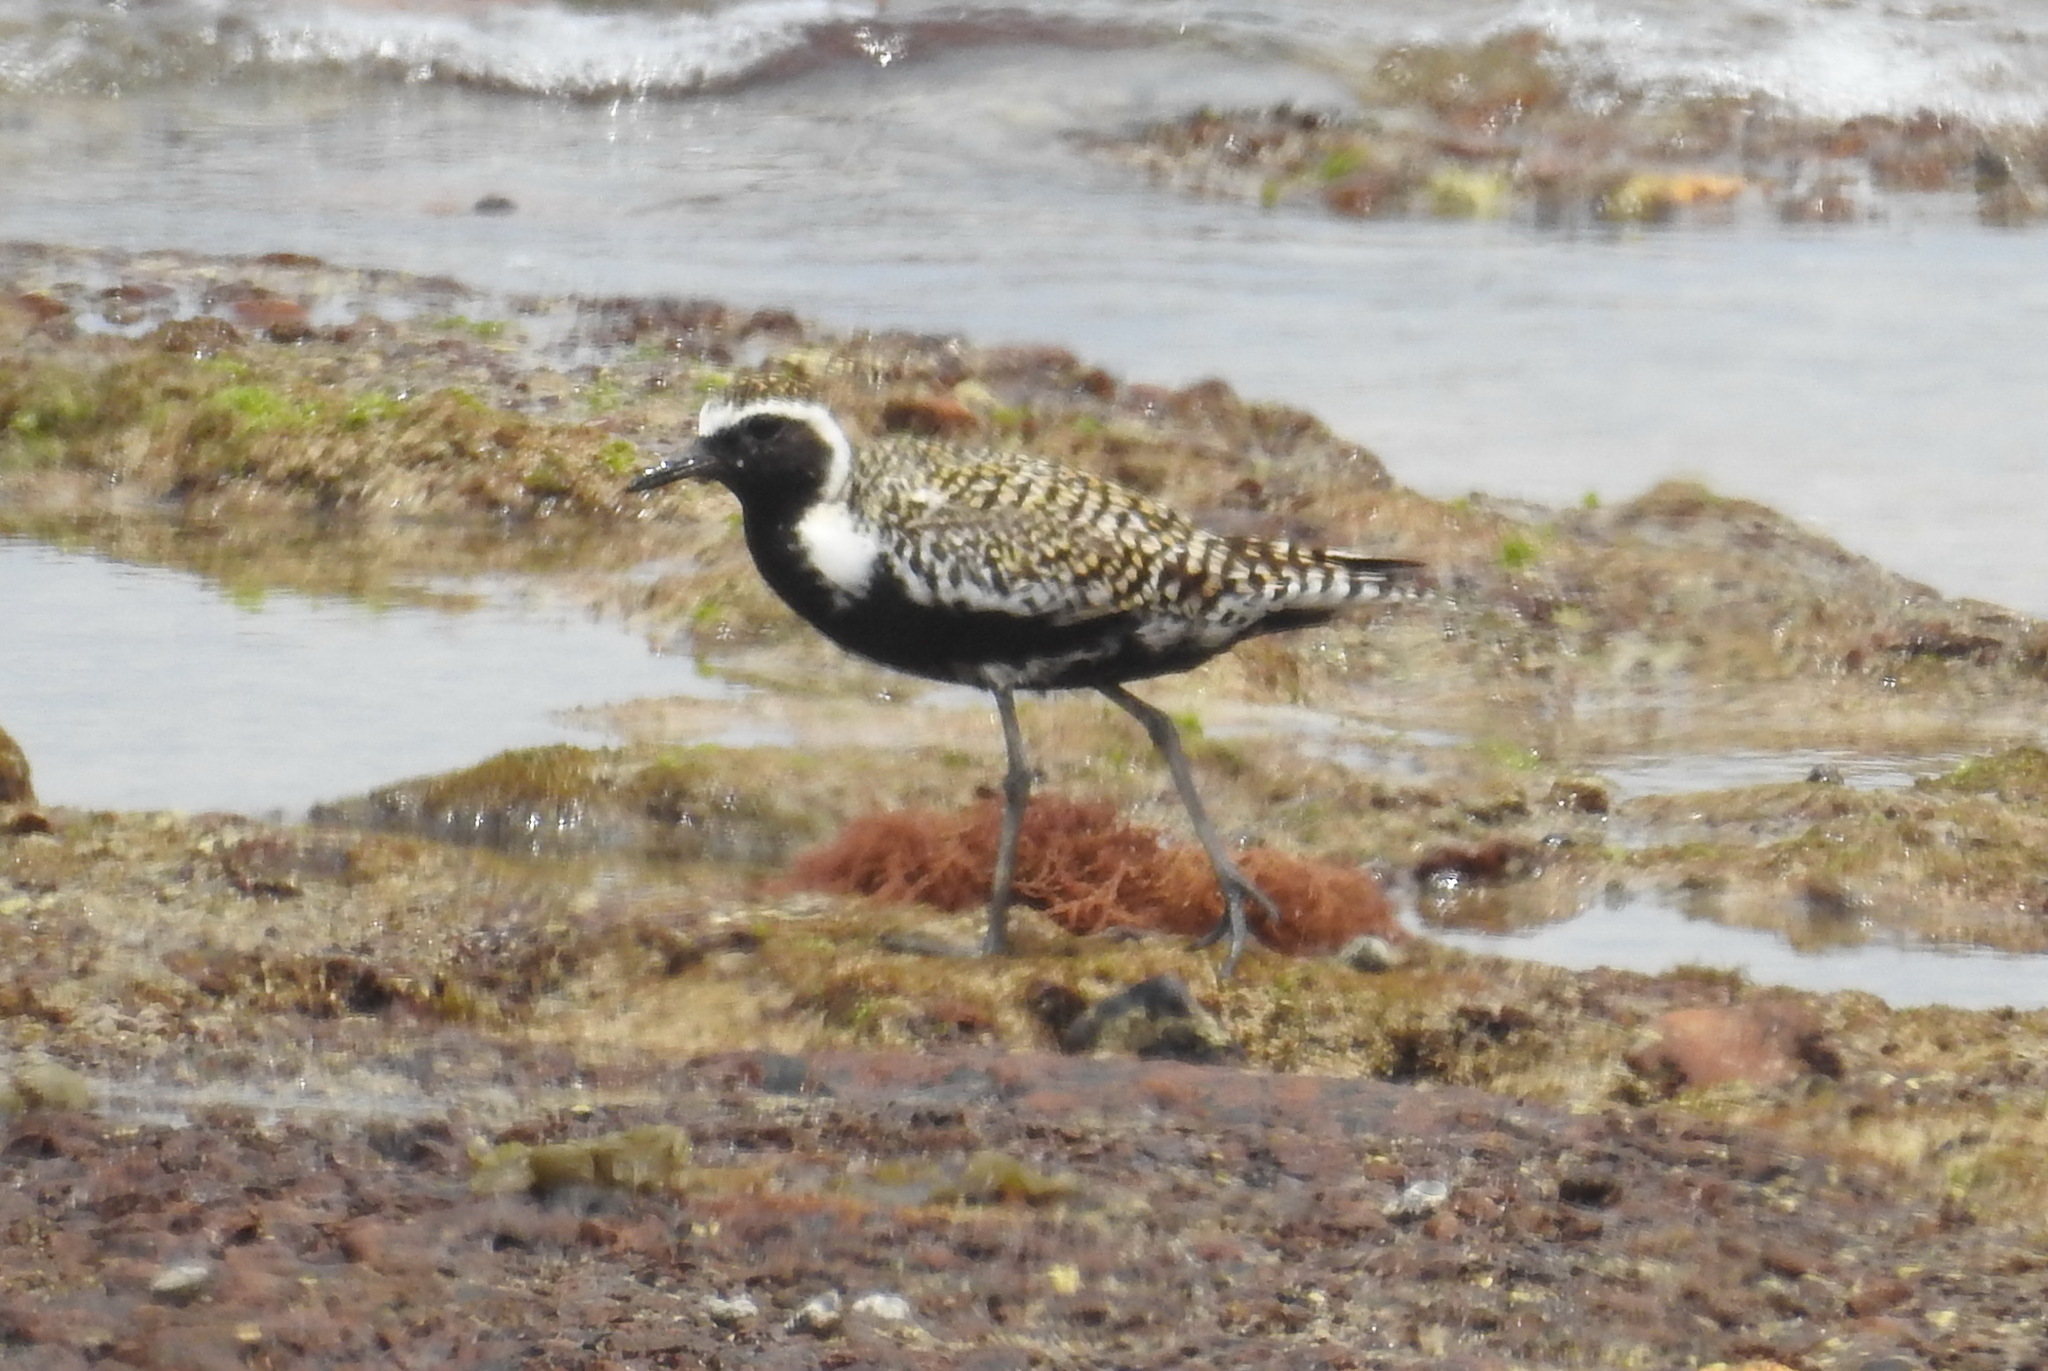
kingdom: Animalia
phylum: Chordata
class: Aves
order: Charadriiformes
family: Charadriidae
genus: Pluvialis
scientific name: Pluvialis fulva
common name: Pacific golden plover
